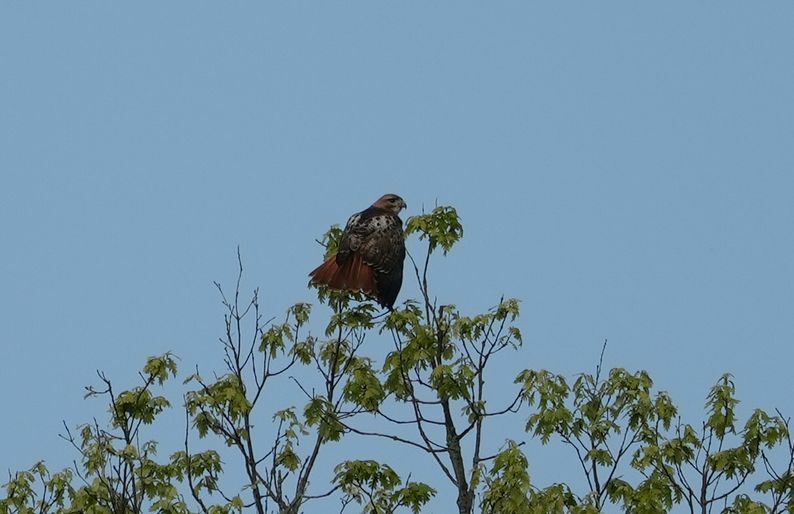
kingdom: Animalia
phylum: Chordata
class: Aves
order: Accipitriformes
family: Accipitridae
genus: Buteo
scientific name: Buteo jamaicensis
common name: Red-tailed hawk
